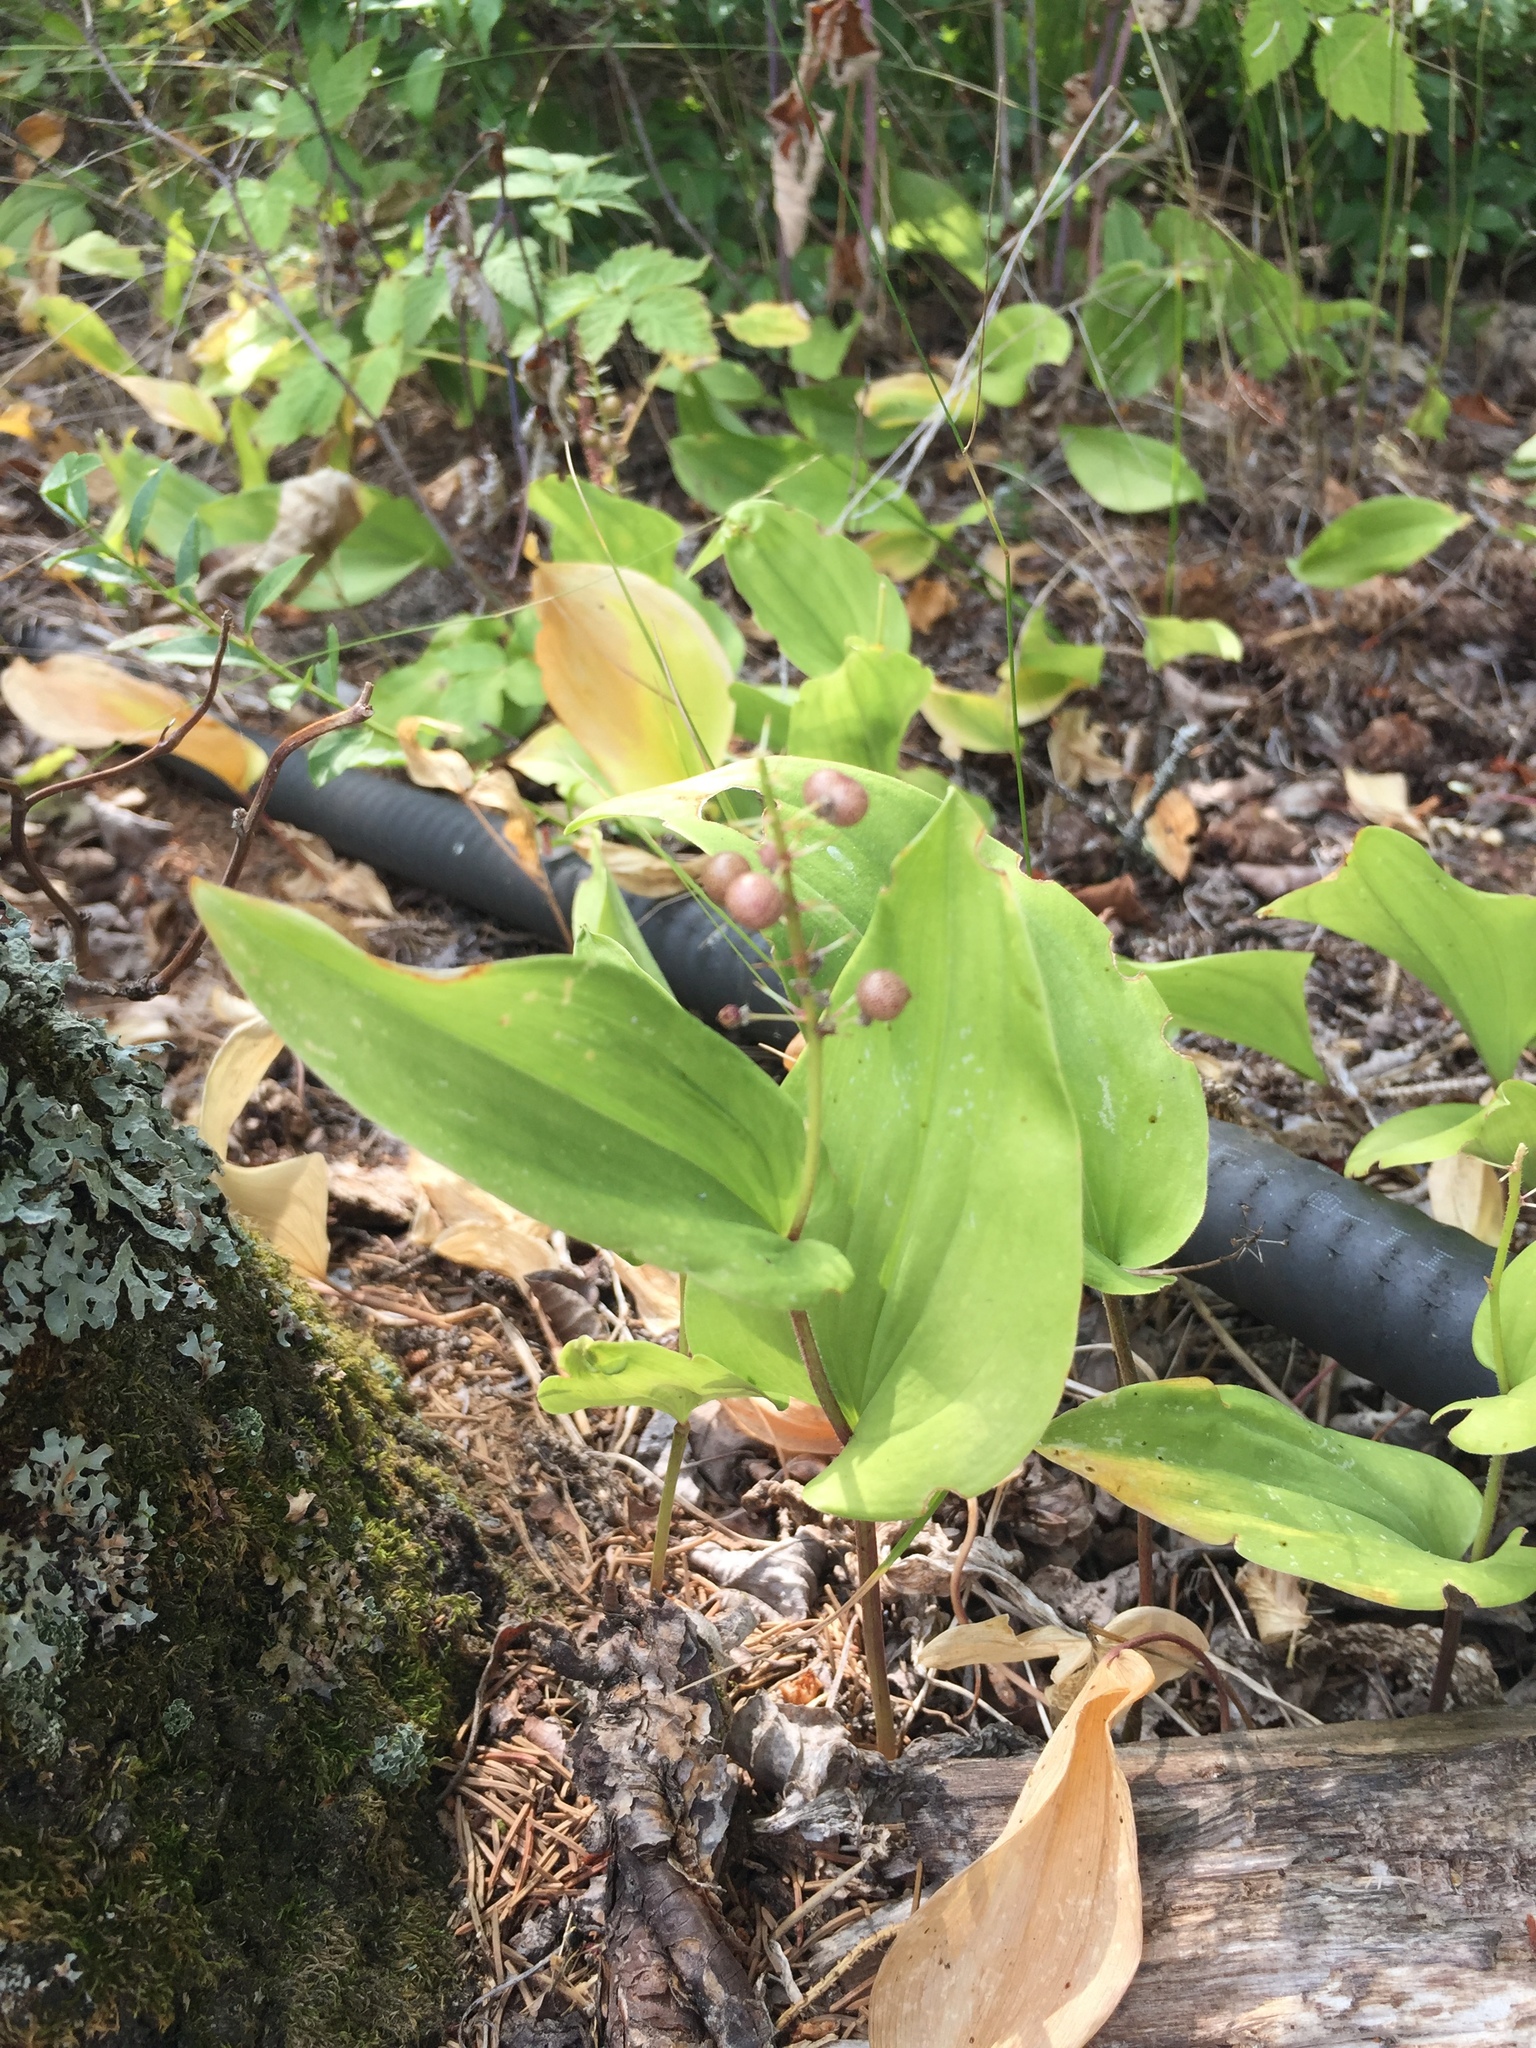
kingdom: Plantae
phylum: Tracheophyta
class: Liliopsida
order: Asparagales
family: Asparagaceae
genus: Maianthemum
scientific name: Maianthemum canadense
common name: False lily-of-the-valley
